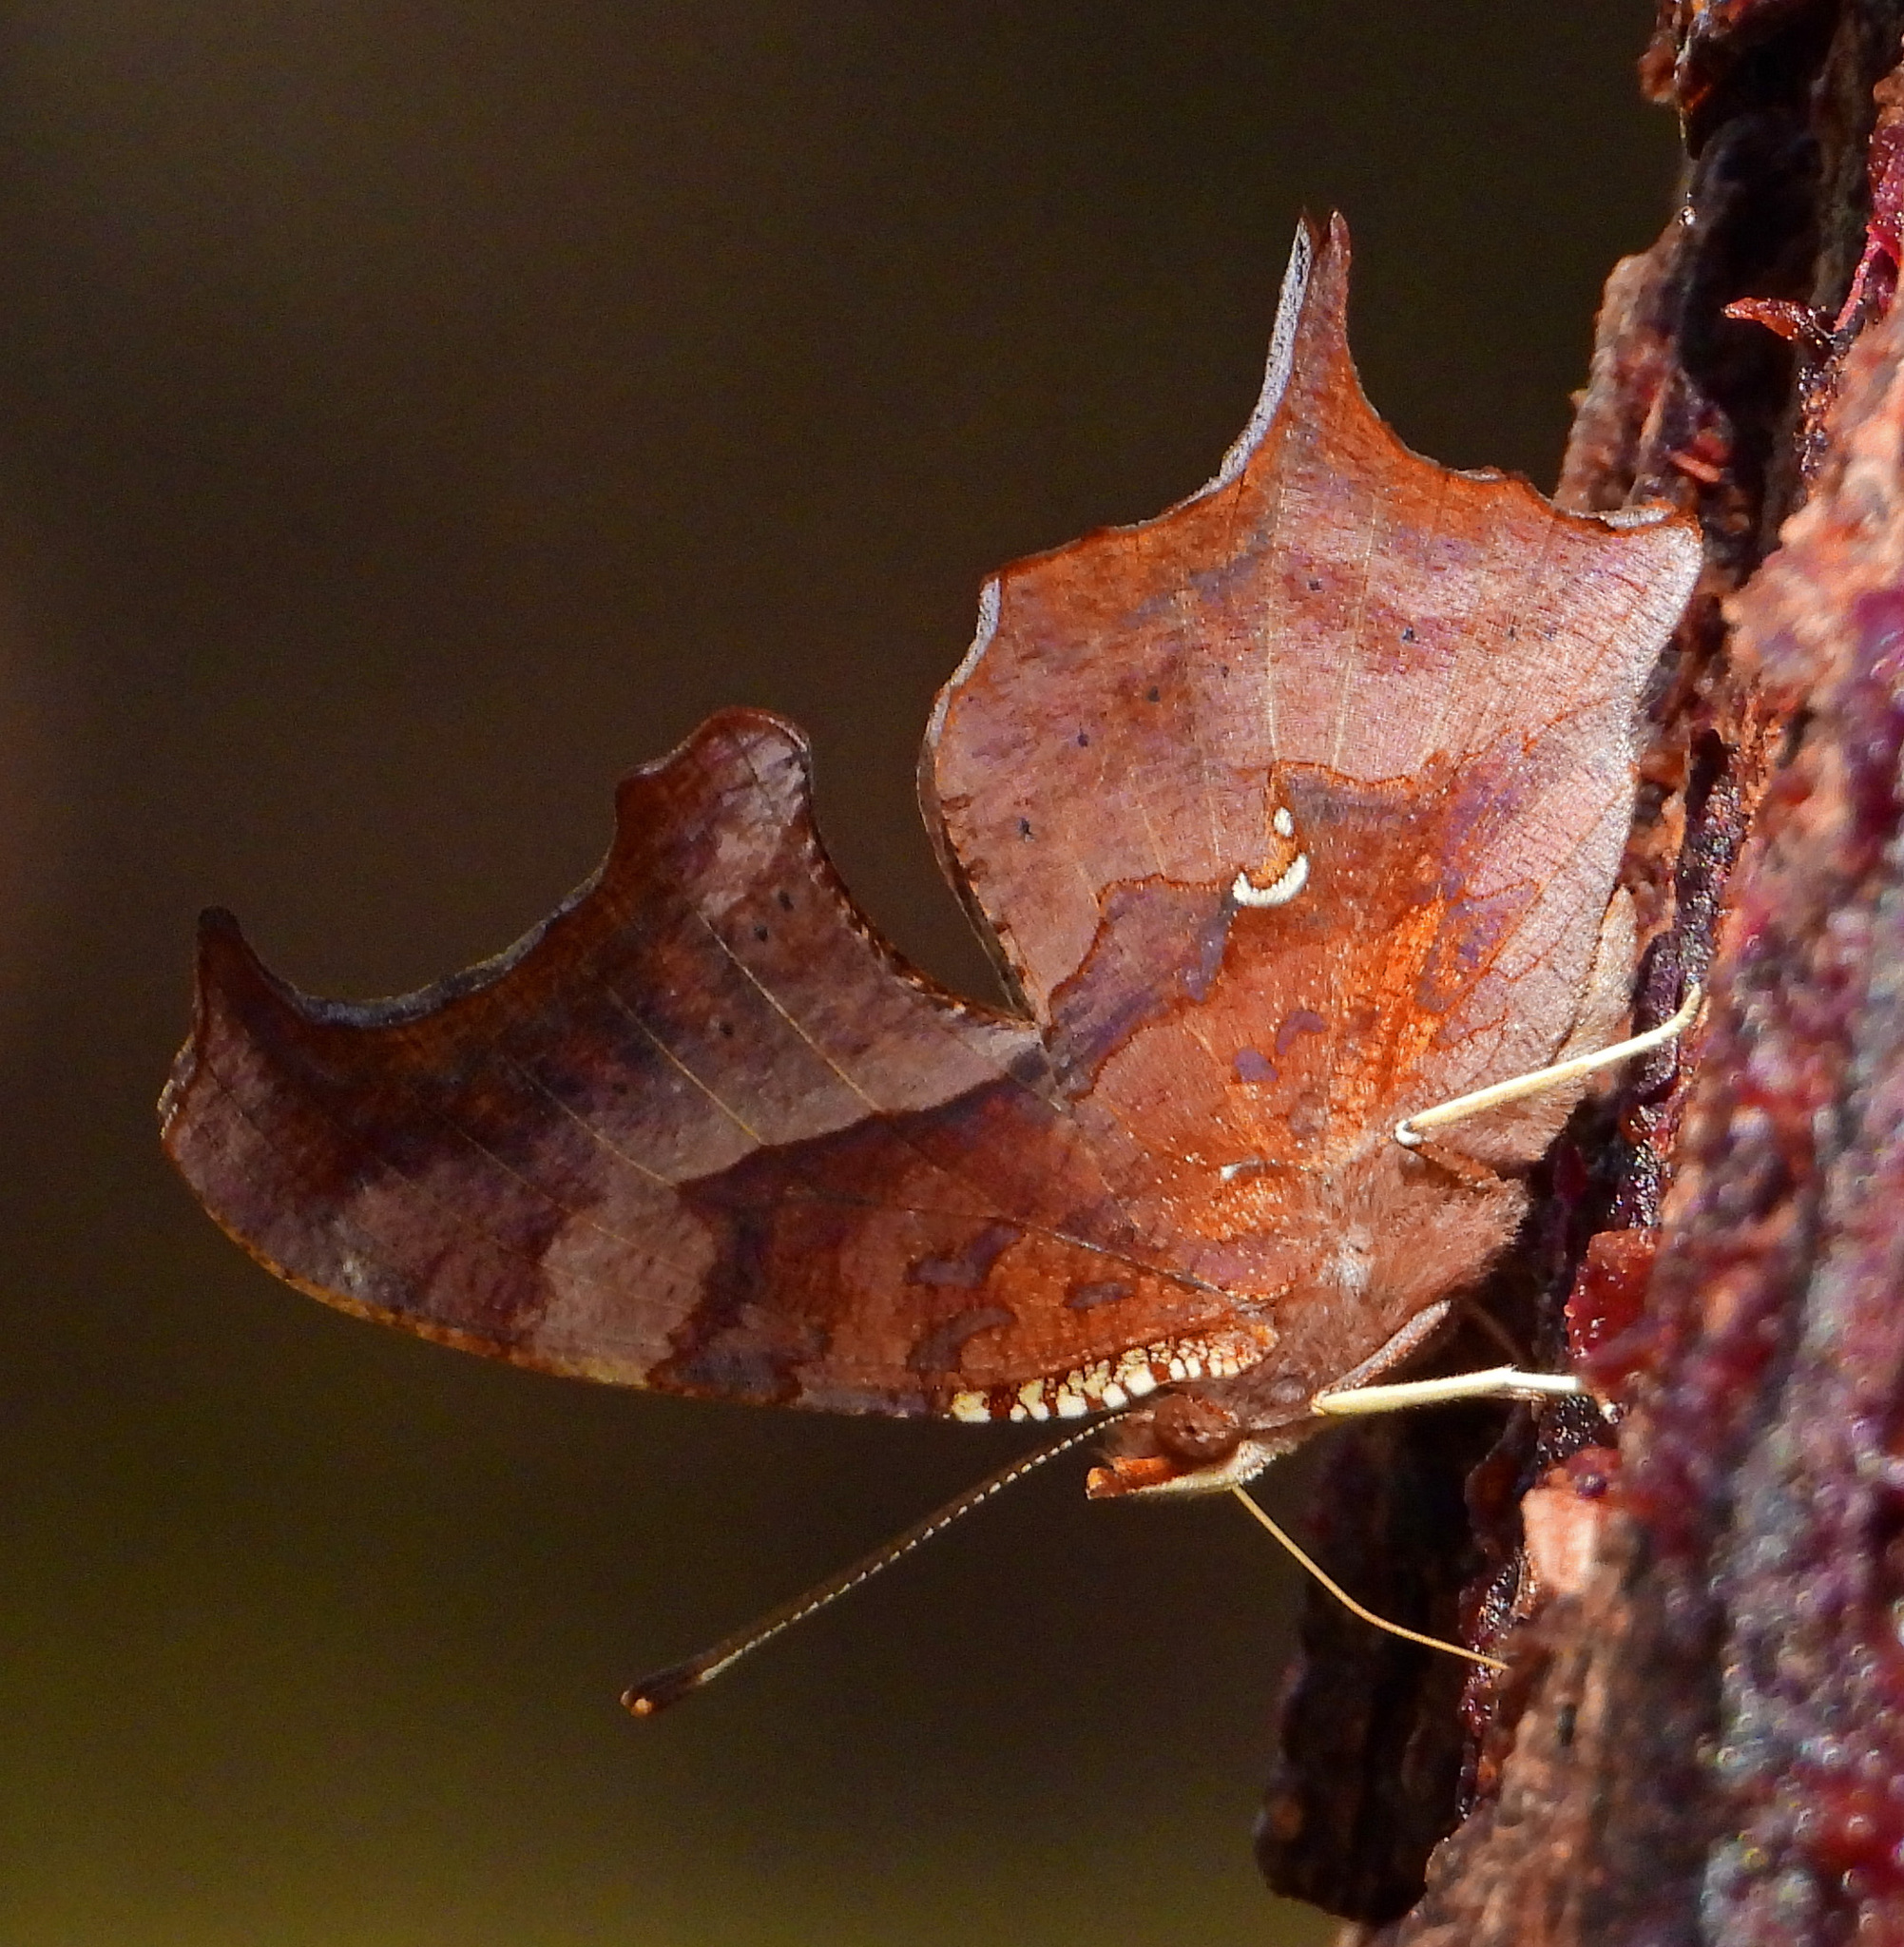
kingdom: Animalia
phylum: Arthropoda
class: Insecta
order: Lepidoptera
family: Nymphalidae
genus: Polygonia
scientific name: Polygonia interrogationis
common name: Question mark
